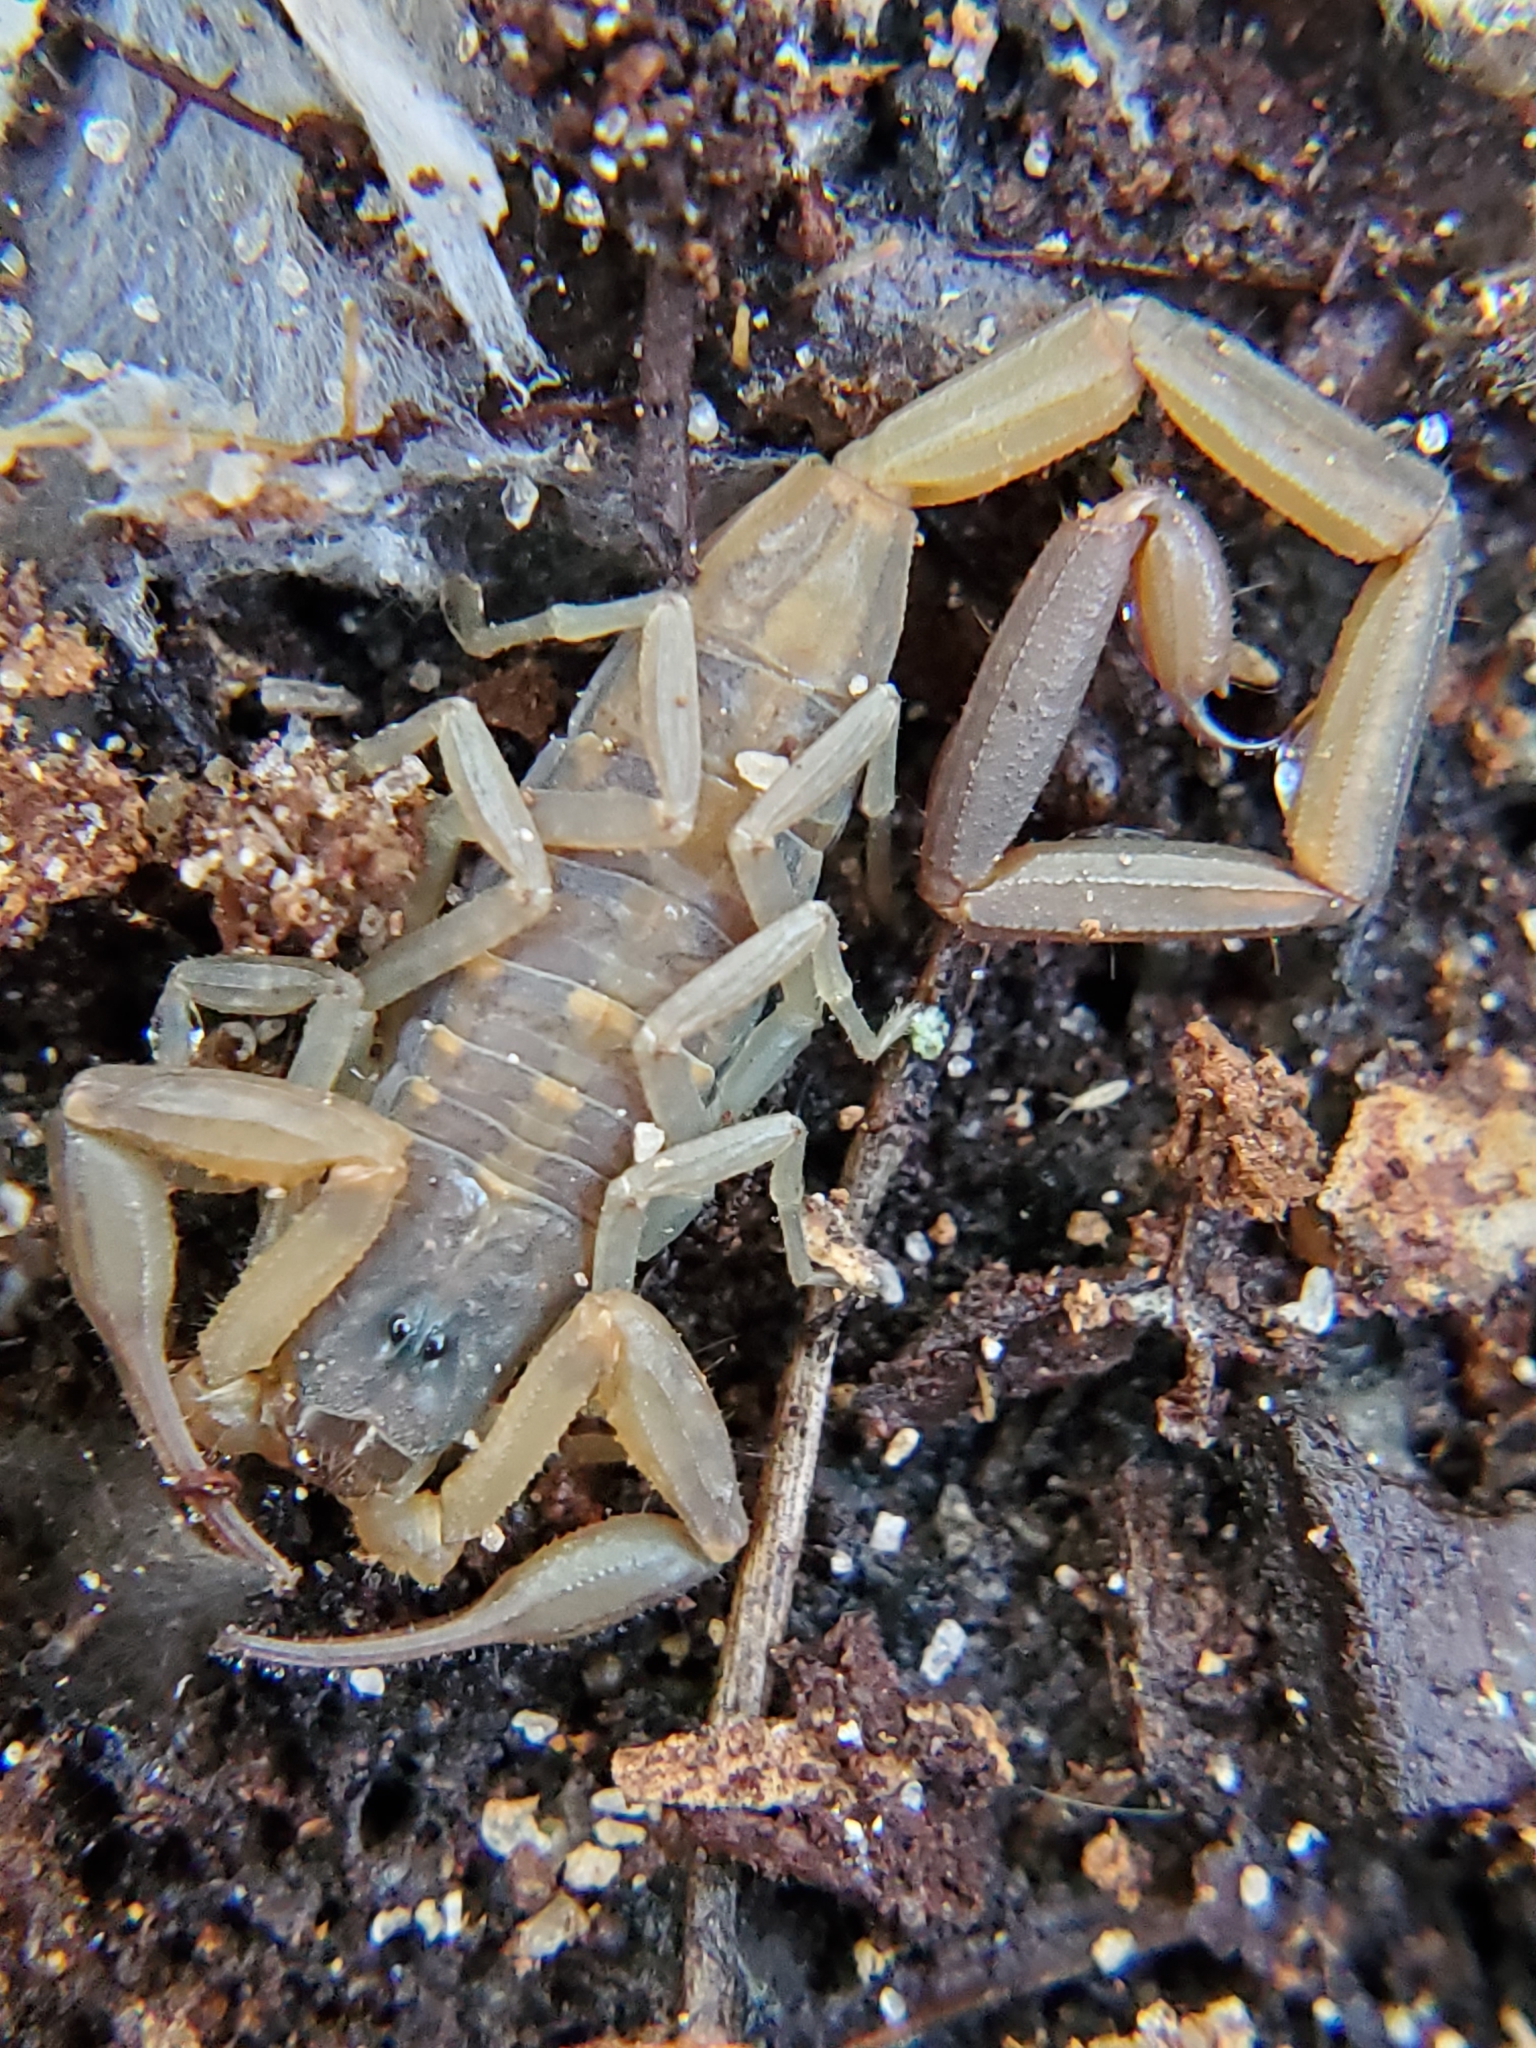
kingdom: Animalia
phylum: Arthropoda
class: Arachnida
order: Scorpiones
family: Buthidae
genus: Centruroides
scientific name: Centruroides hentzi
